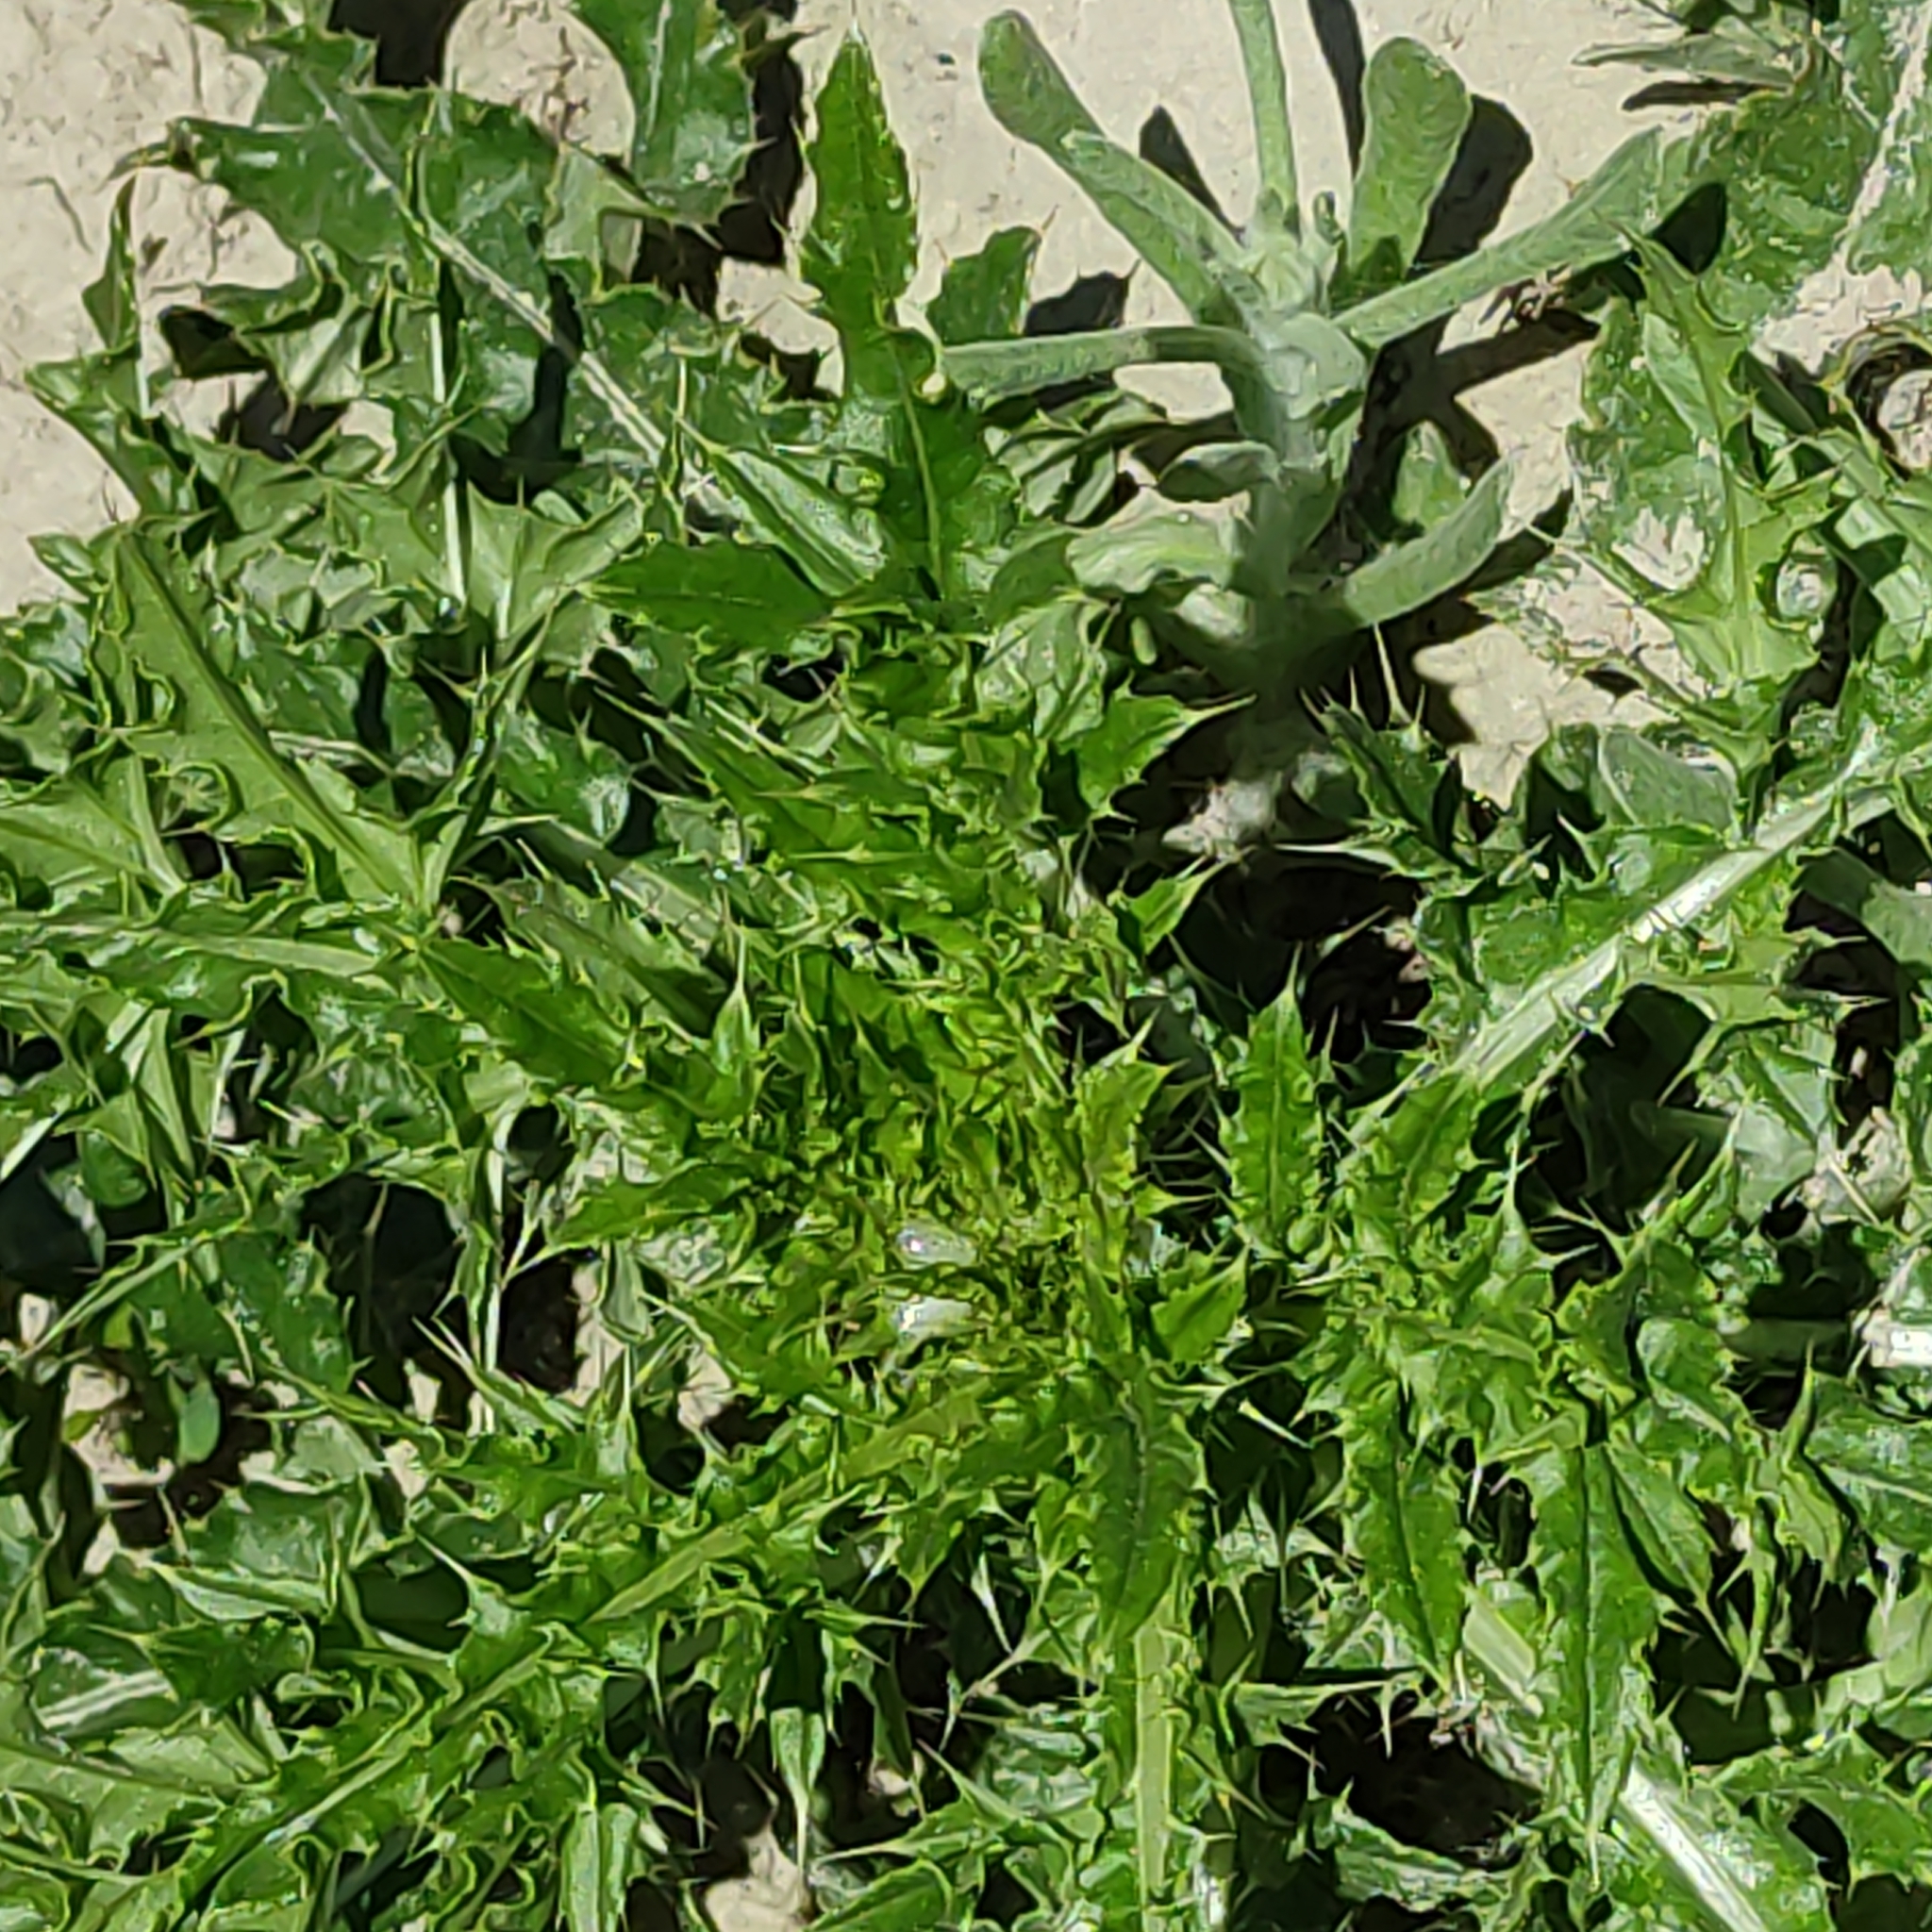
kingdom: Plantae
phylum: Tracheophyta
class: Magnoliopsida
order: Asterales
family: Asteraceae
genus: Cirsium
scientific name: Cirsium arvense
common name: Creeping thistle
